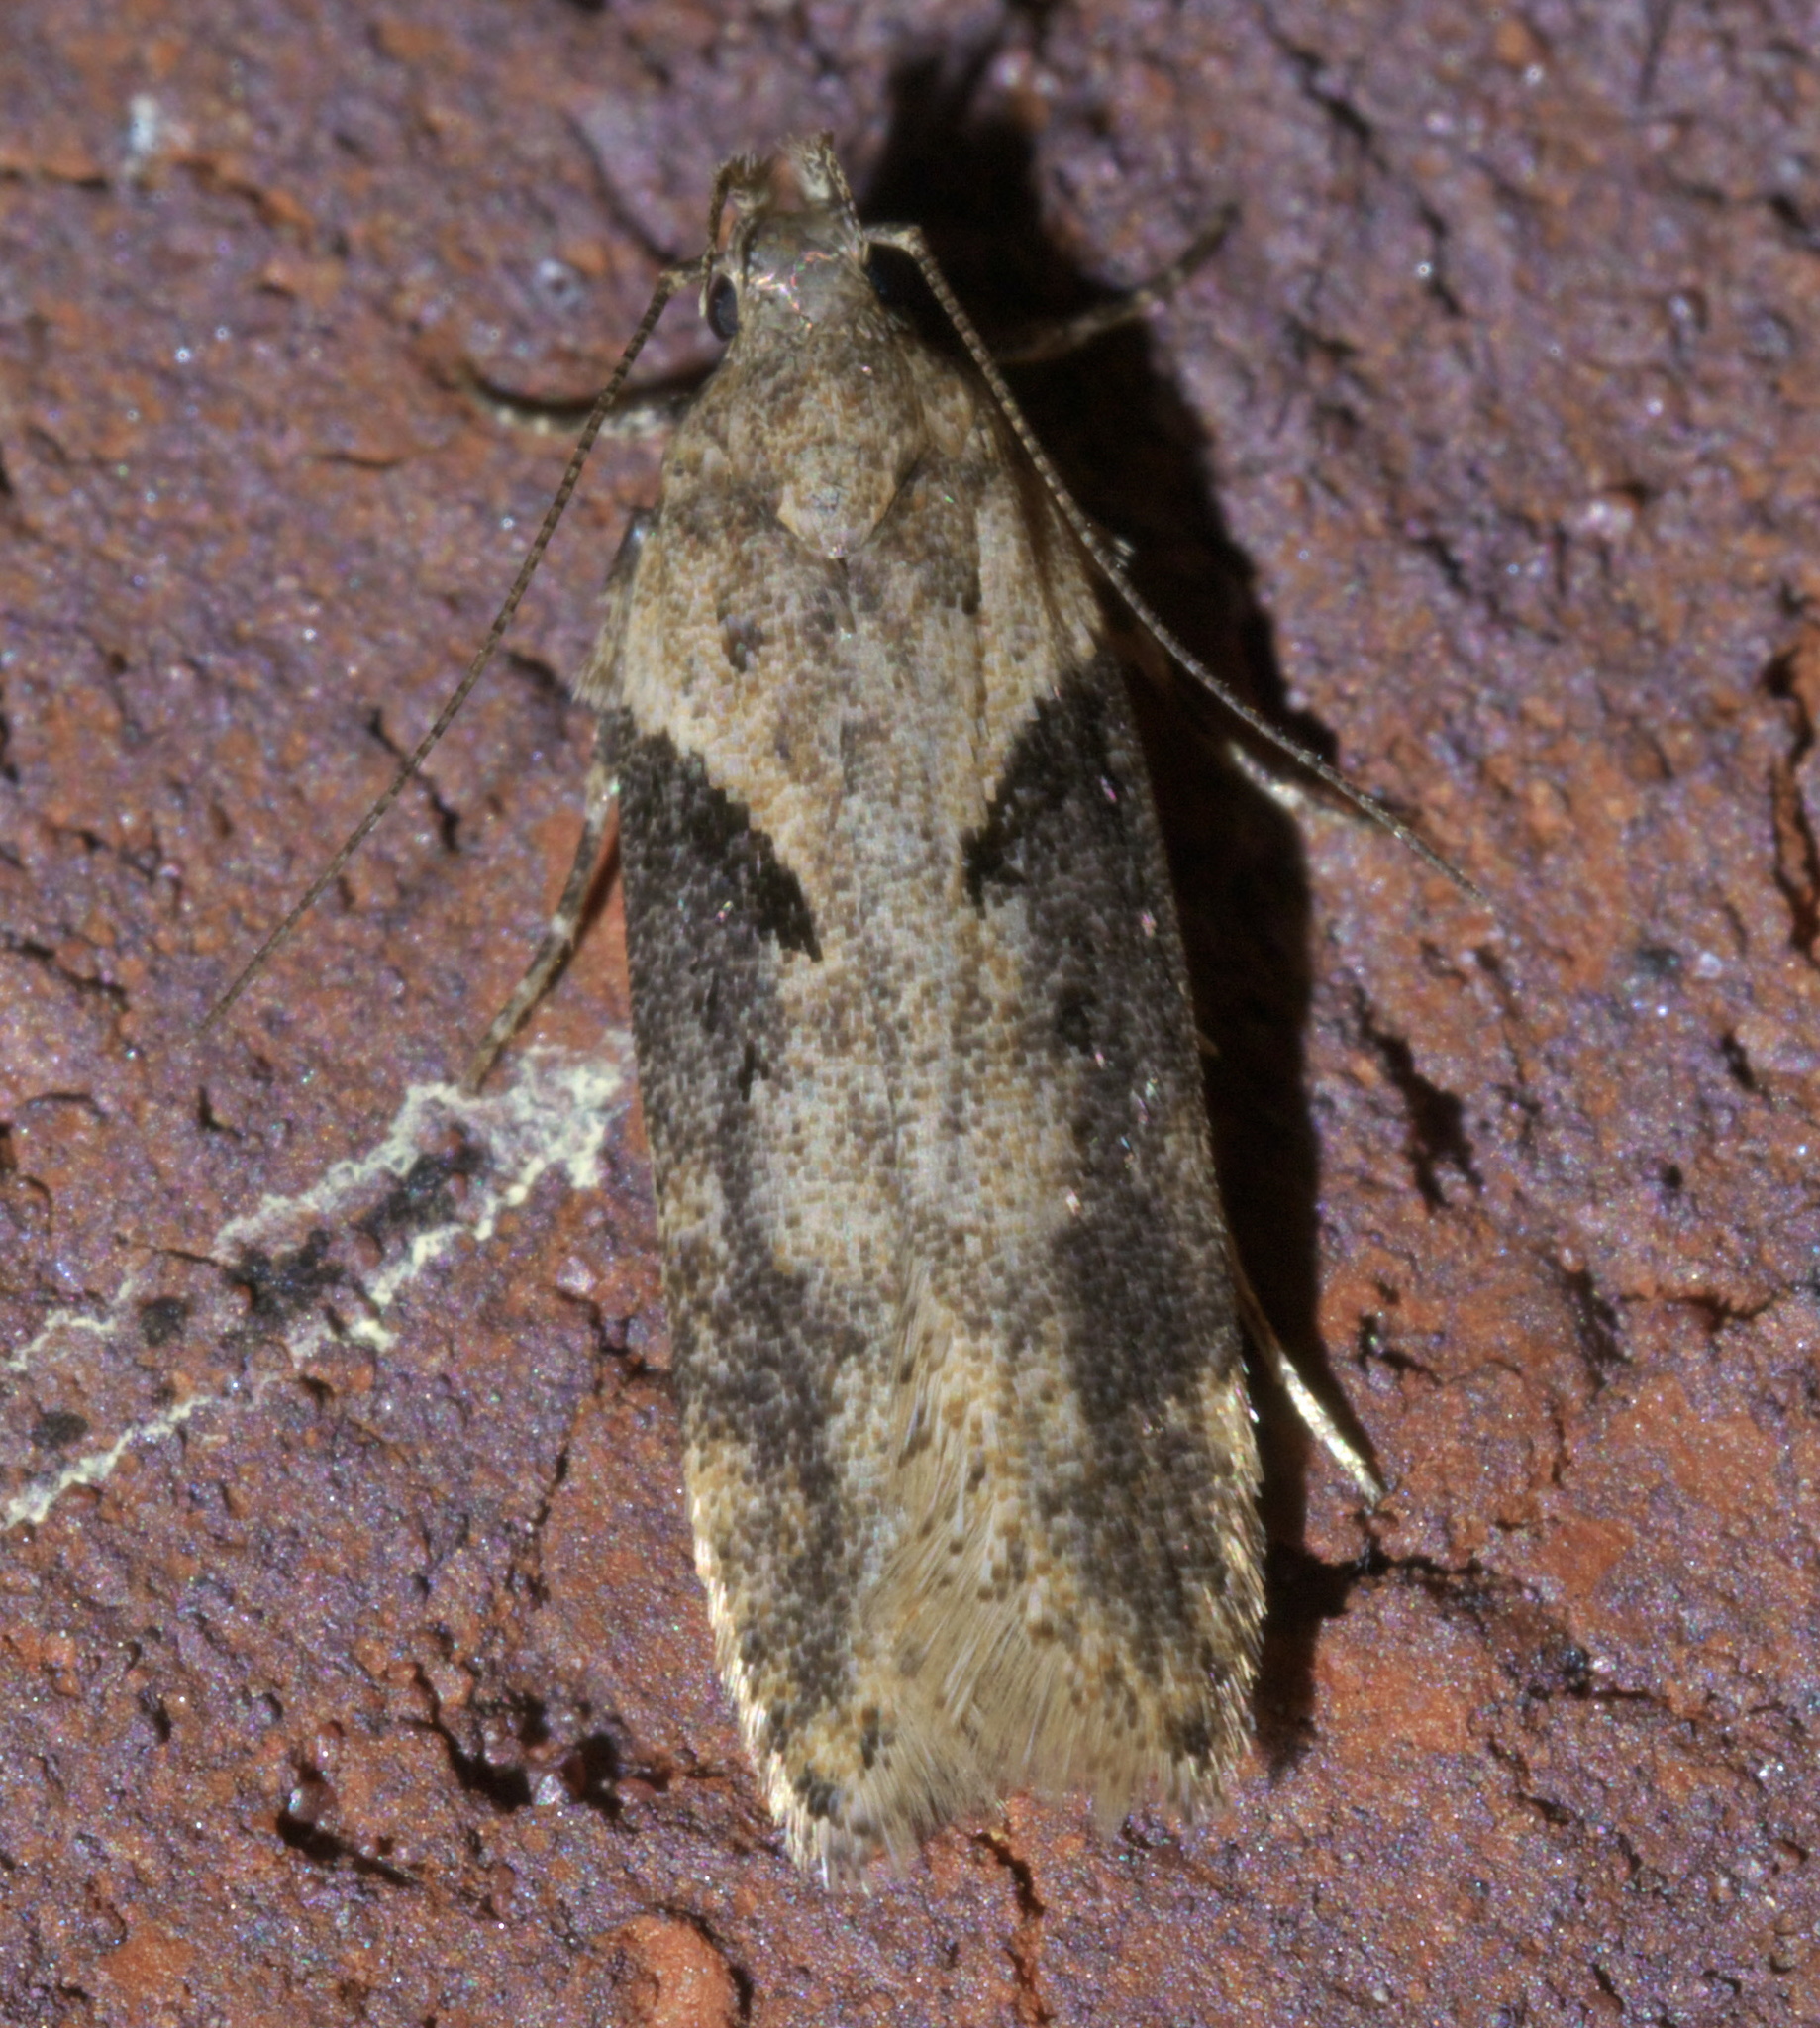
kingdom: Animalia
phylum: Arthropoda
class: Insecta
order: Lepidoptera
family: Gelechiidae
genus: Chionodes
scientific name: Chionodes mediofuscella
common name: Black-smudged chionodes moth
